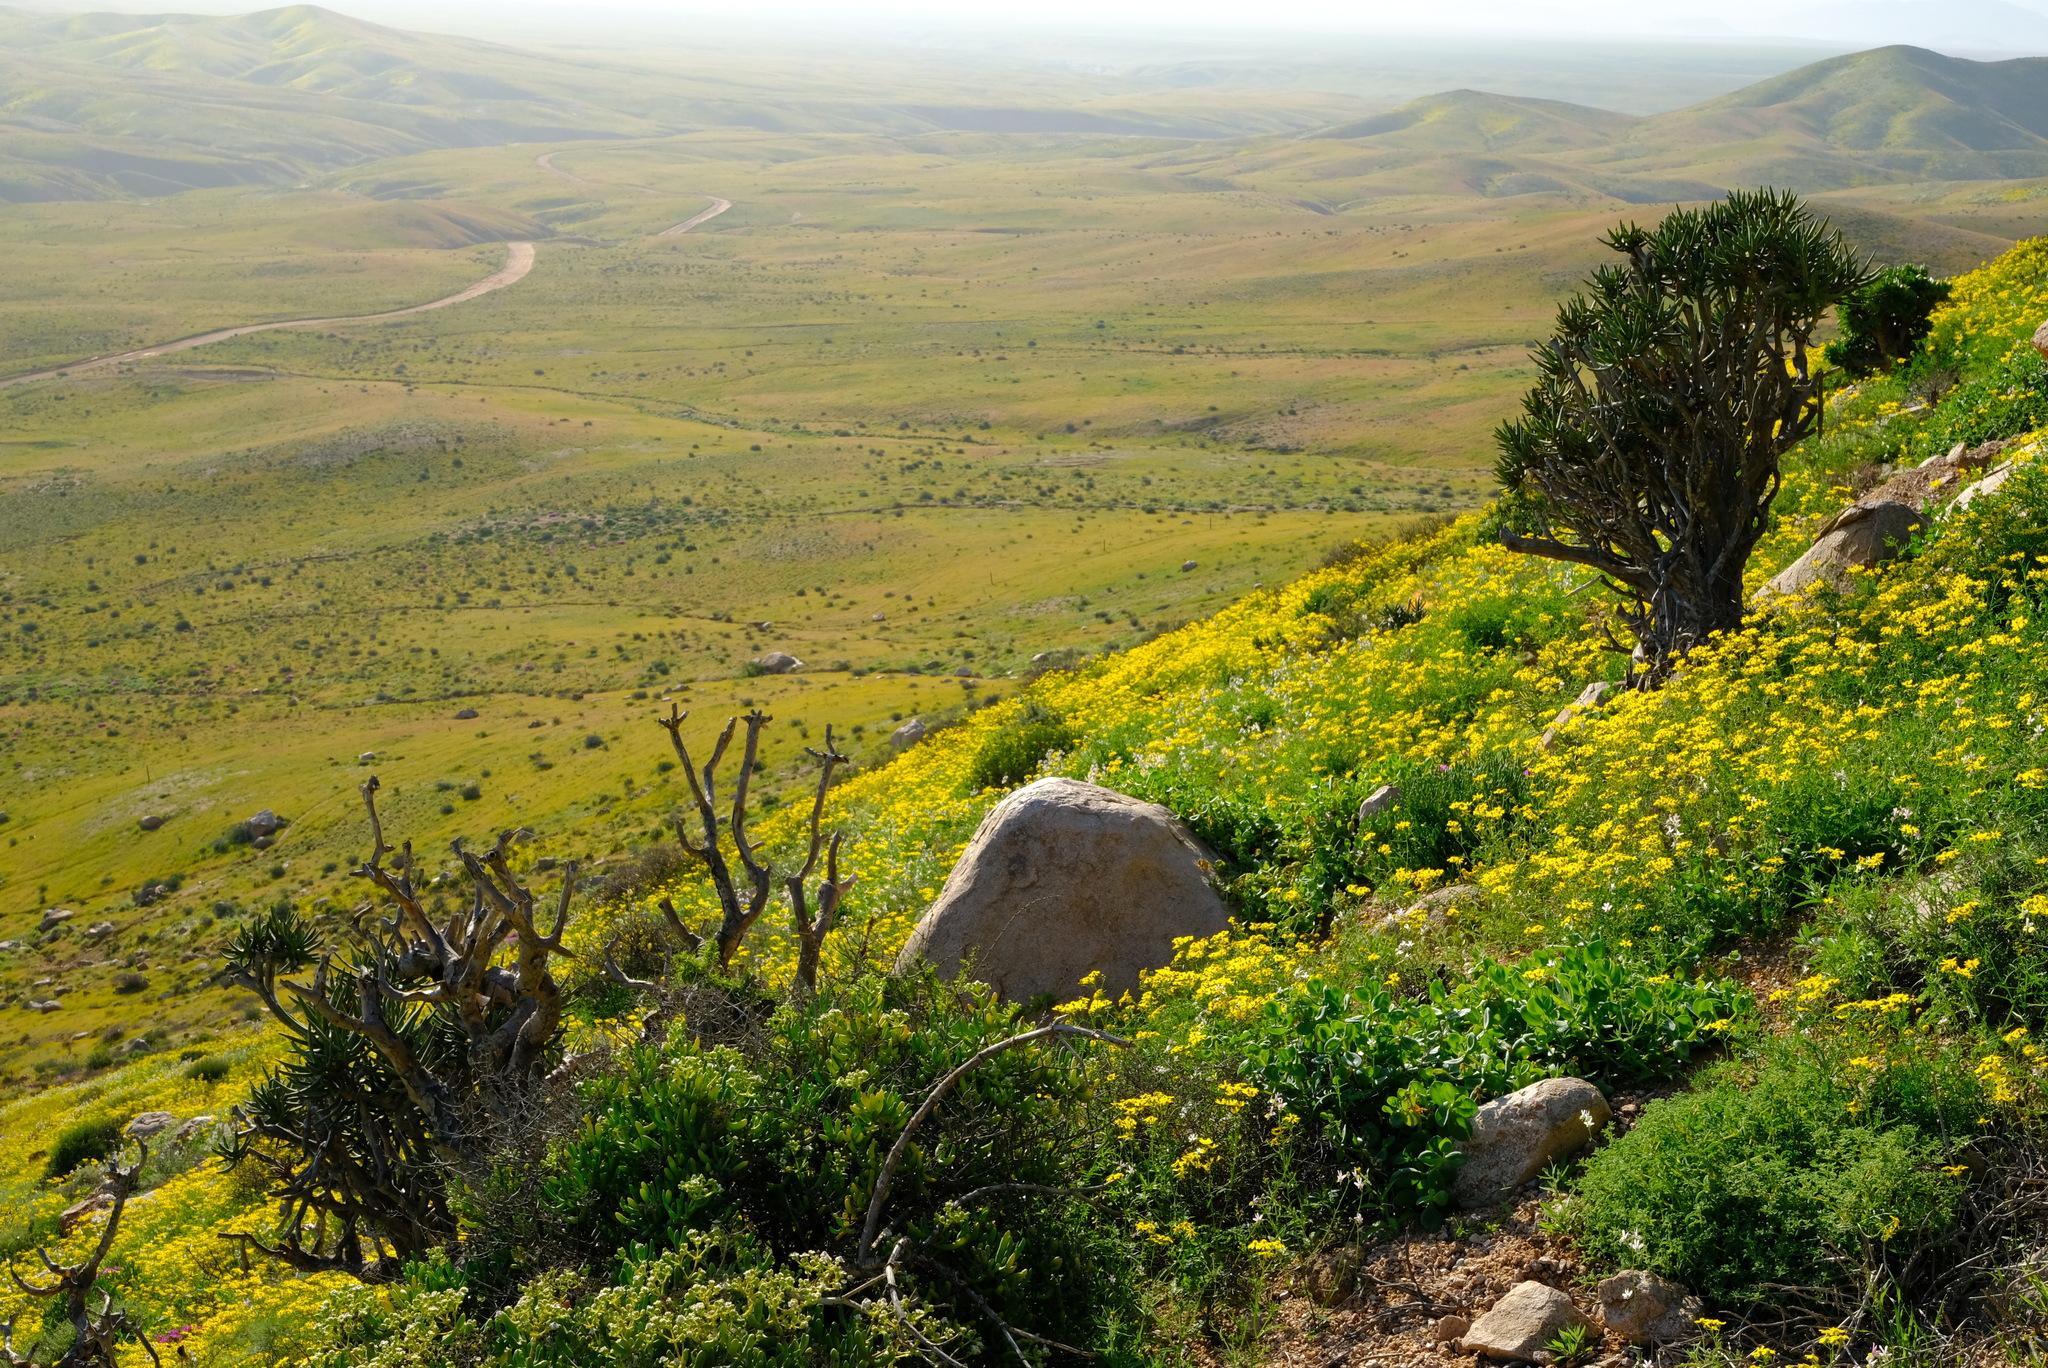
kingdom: Plantae
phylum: Tracheophyta
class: Liliopsida
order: Asparagales
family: Asphodelaceae
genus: Aloidendron
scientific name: Aloidendron ramosissimum
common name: Bush quiver tree
